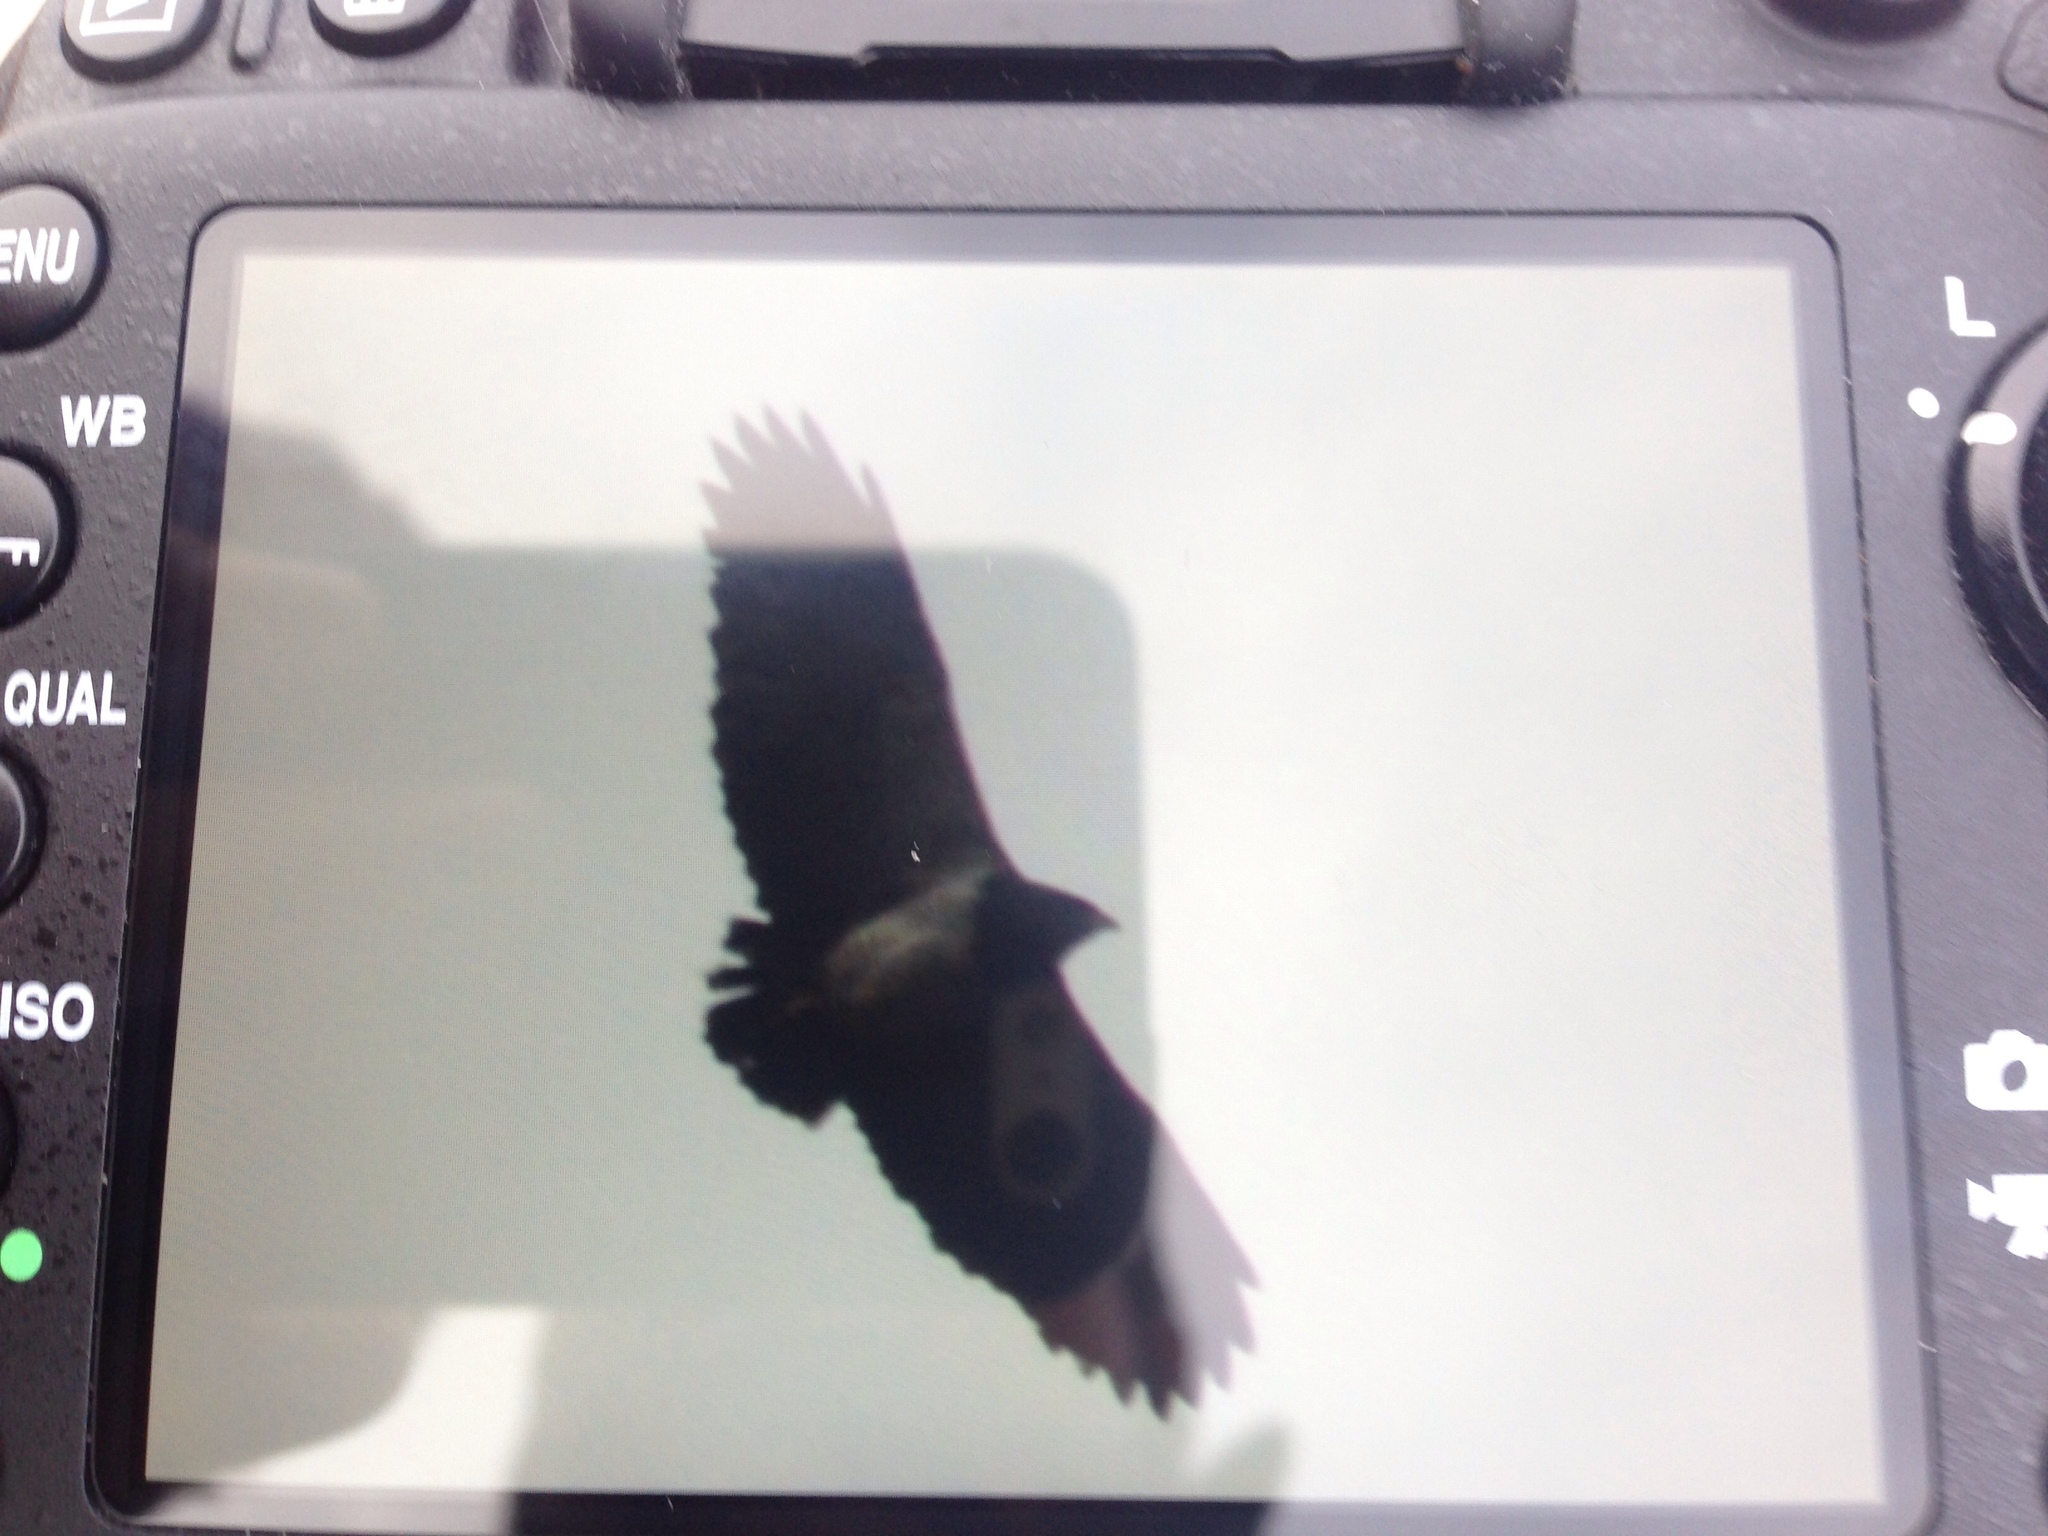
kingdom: Animalia
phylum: Chordata
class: Aves
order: Accipitriformes
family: Accipitridae
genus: Geranoaetus
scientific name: Geranoaetus melanoleucus
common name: Black-chested buzzard-eagle
